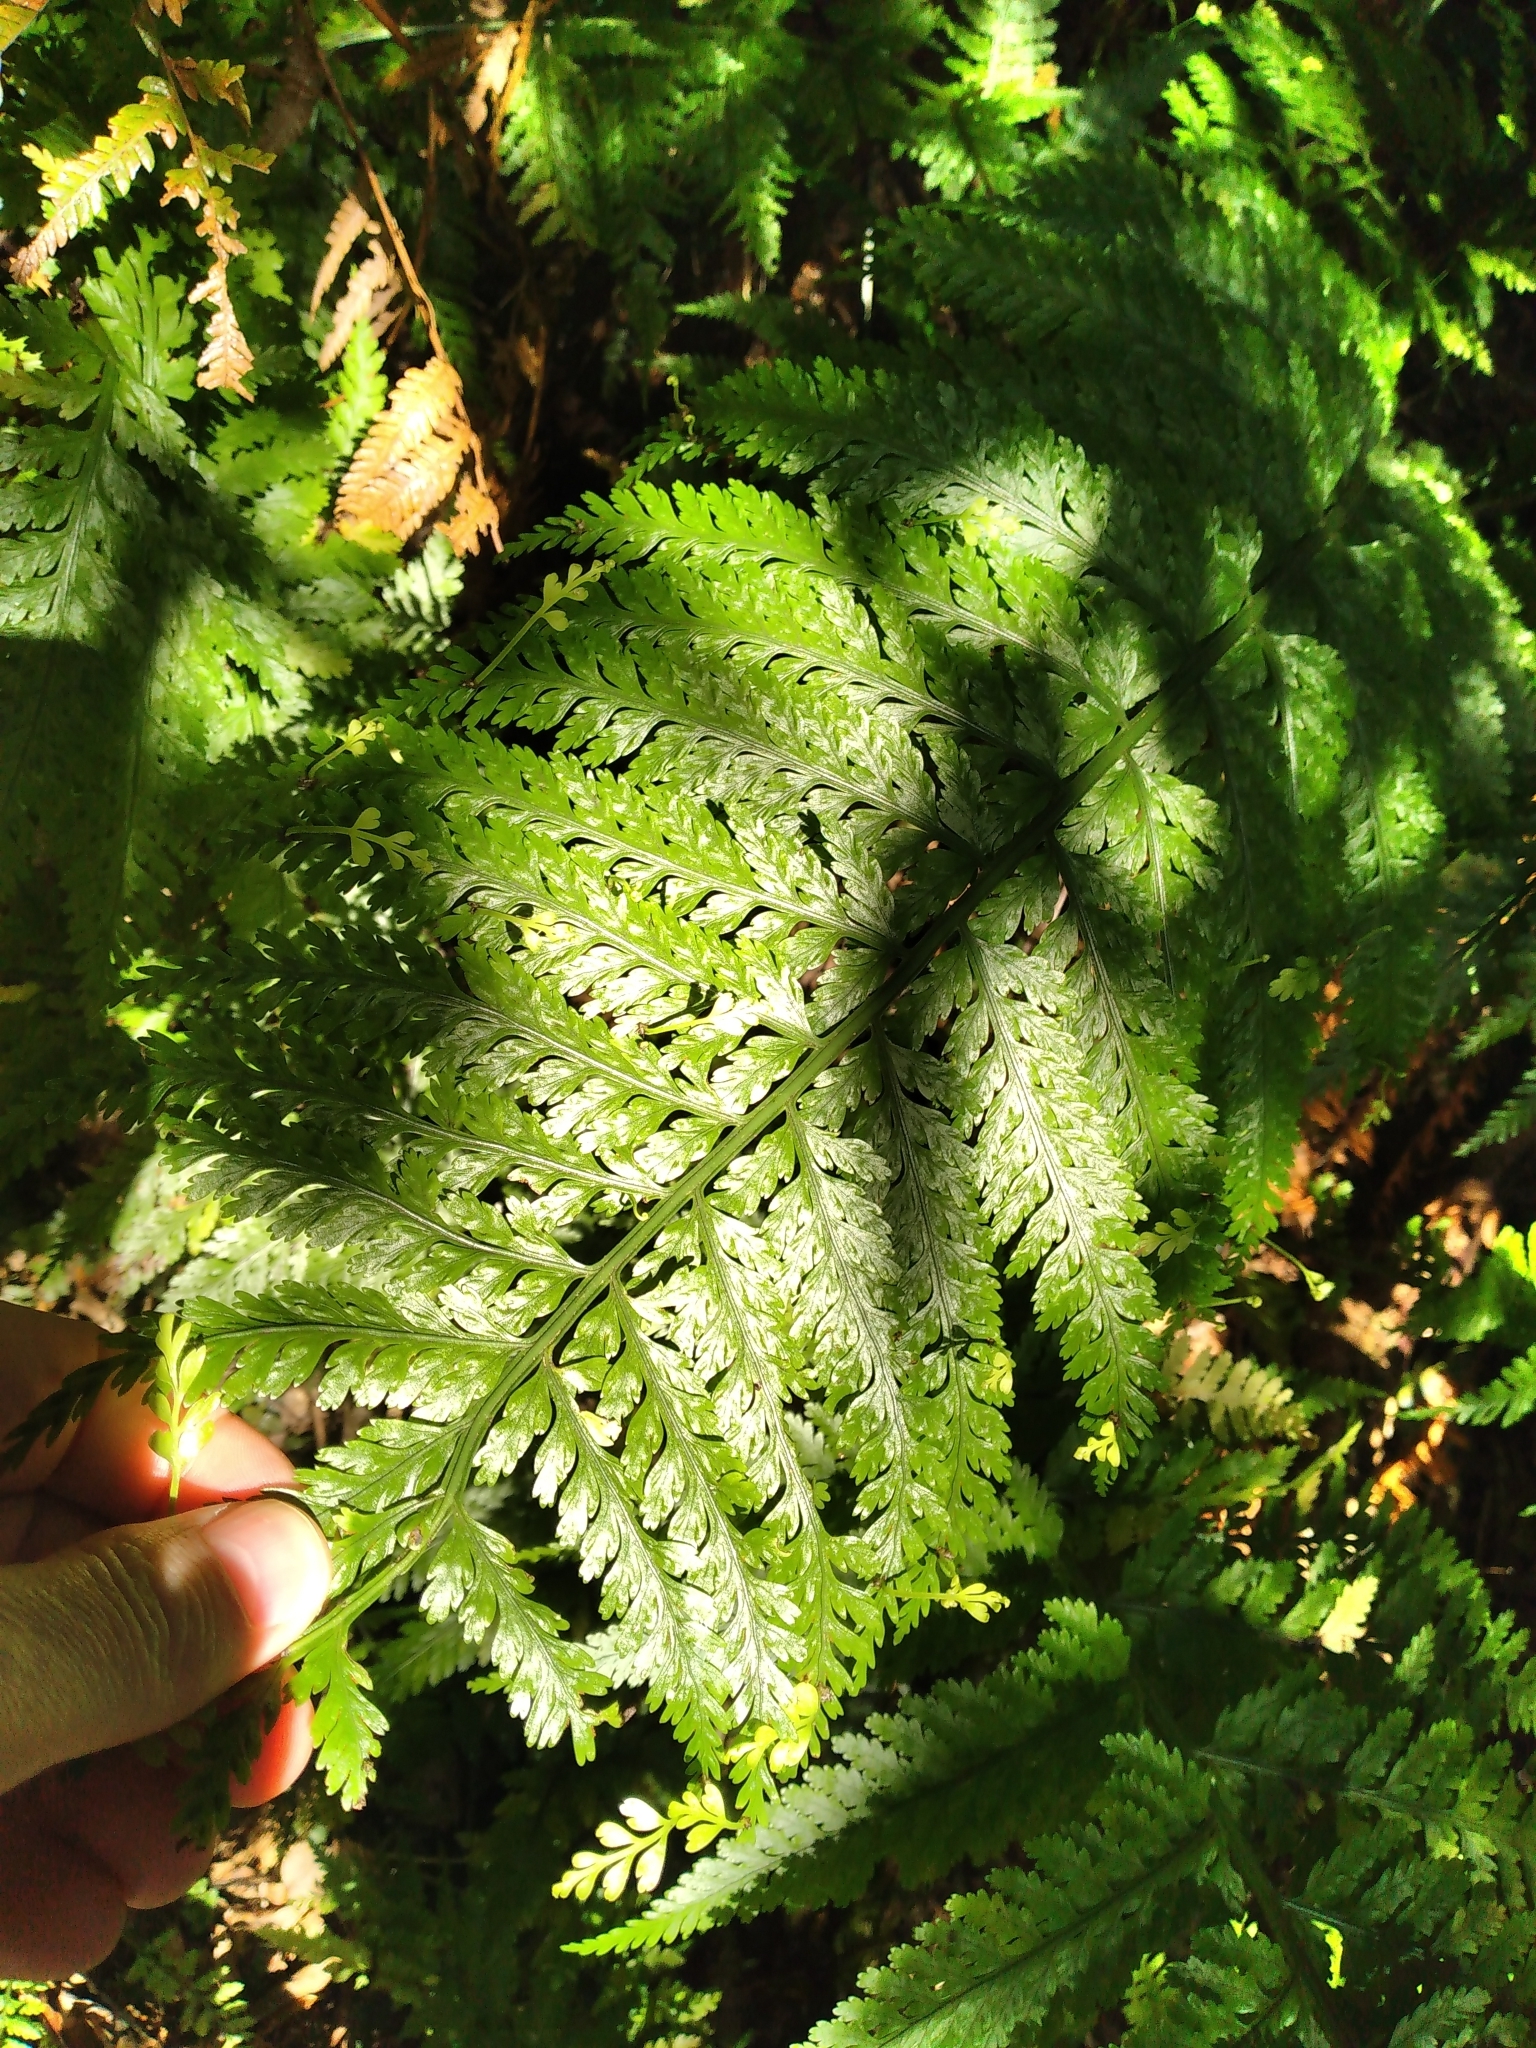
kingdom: Plantae
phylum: Tracheophyta
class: Polypodiopsida
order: Polypodiales
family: Aspleniaceae
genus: Asplenium
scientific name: Asplenium bulbiferum
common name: Mother fern
